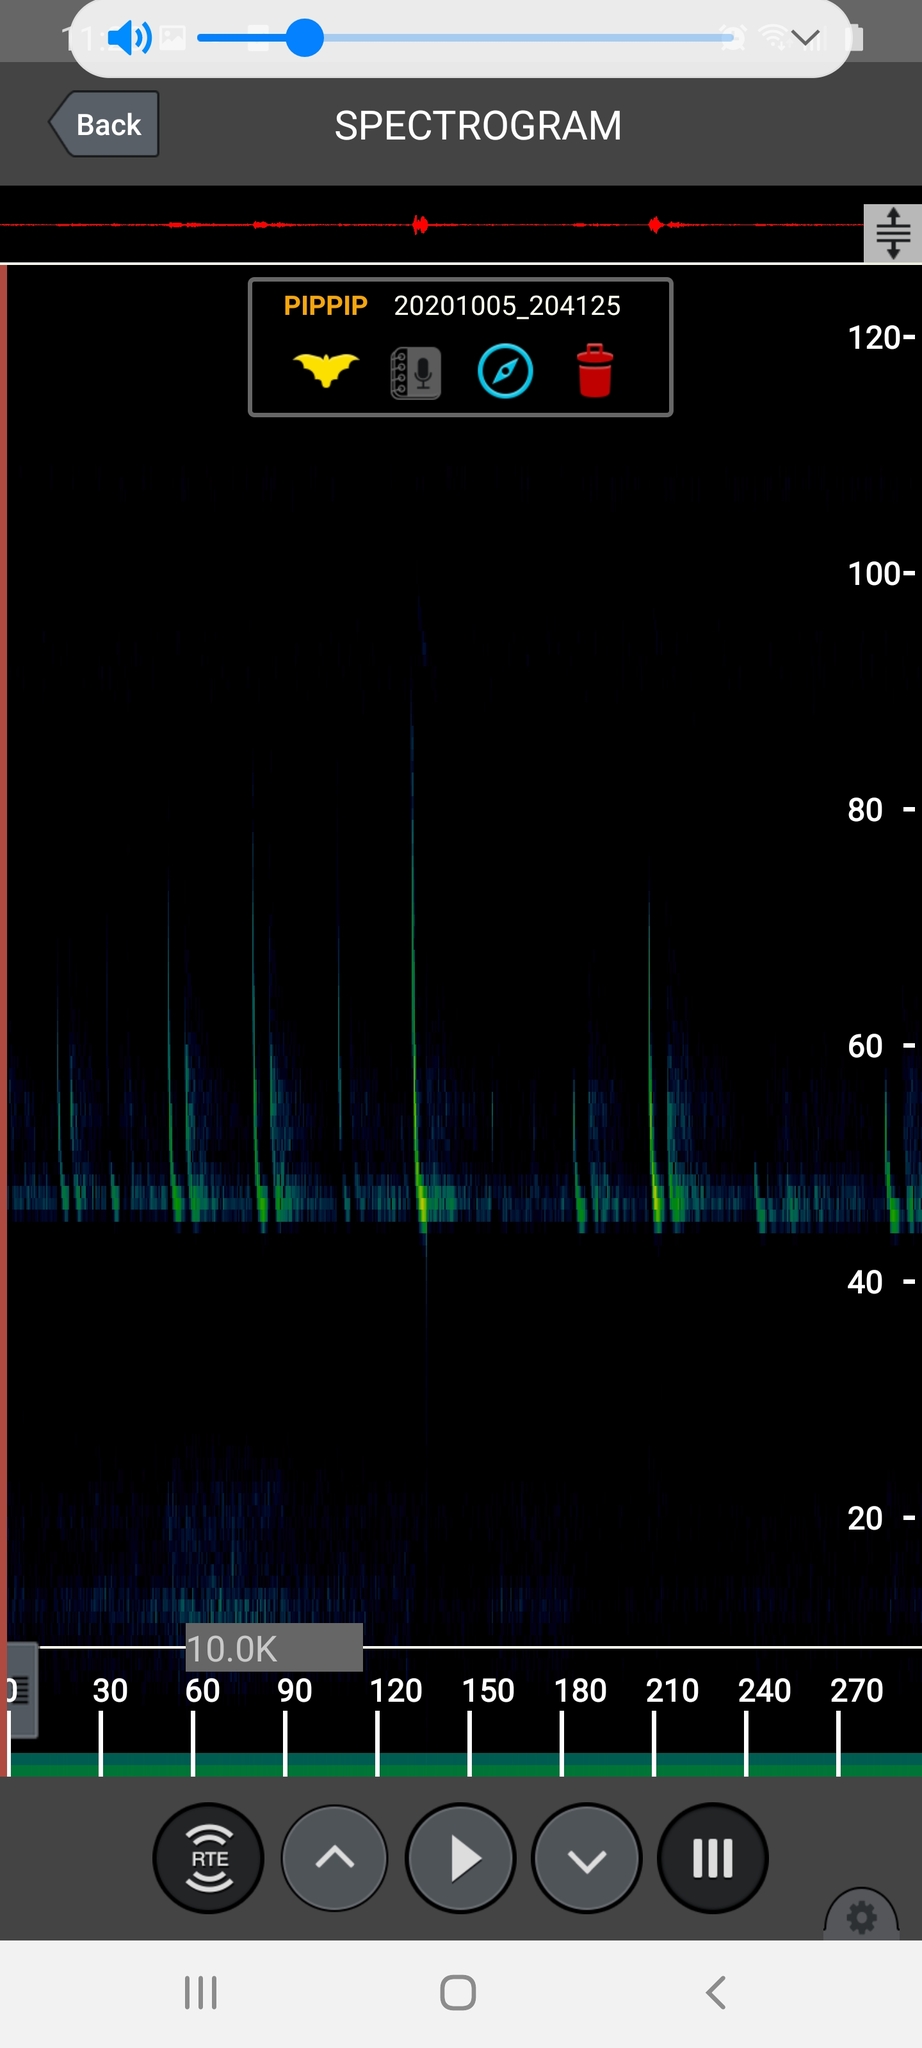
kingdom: Animalia
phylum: Chordata
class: Mammalia
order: Chiroptera
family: Vespertilionidae
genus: Pipistrellus
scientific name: Pipistrellus pipistrellus
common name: Common pipistrelle
